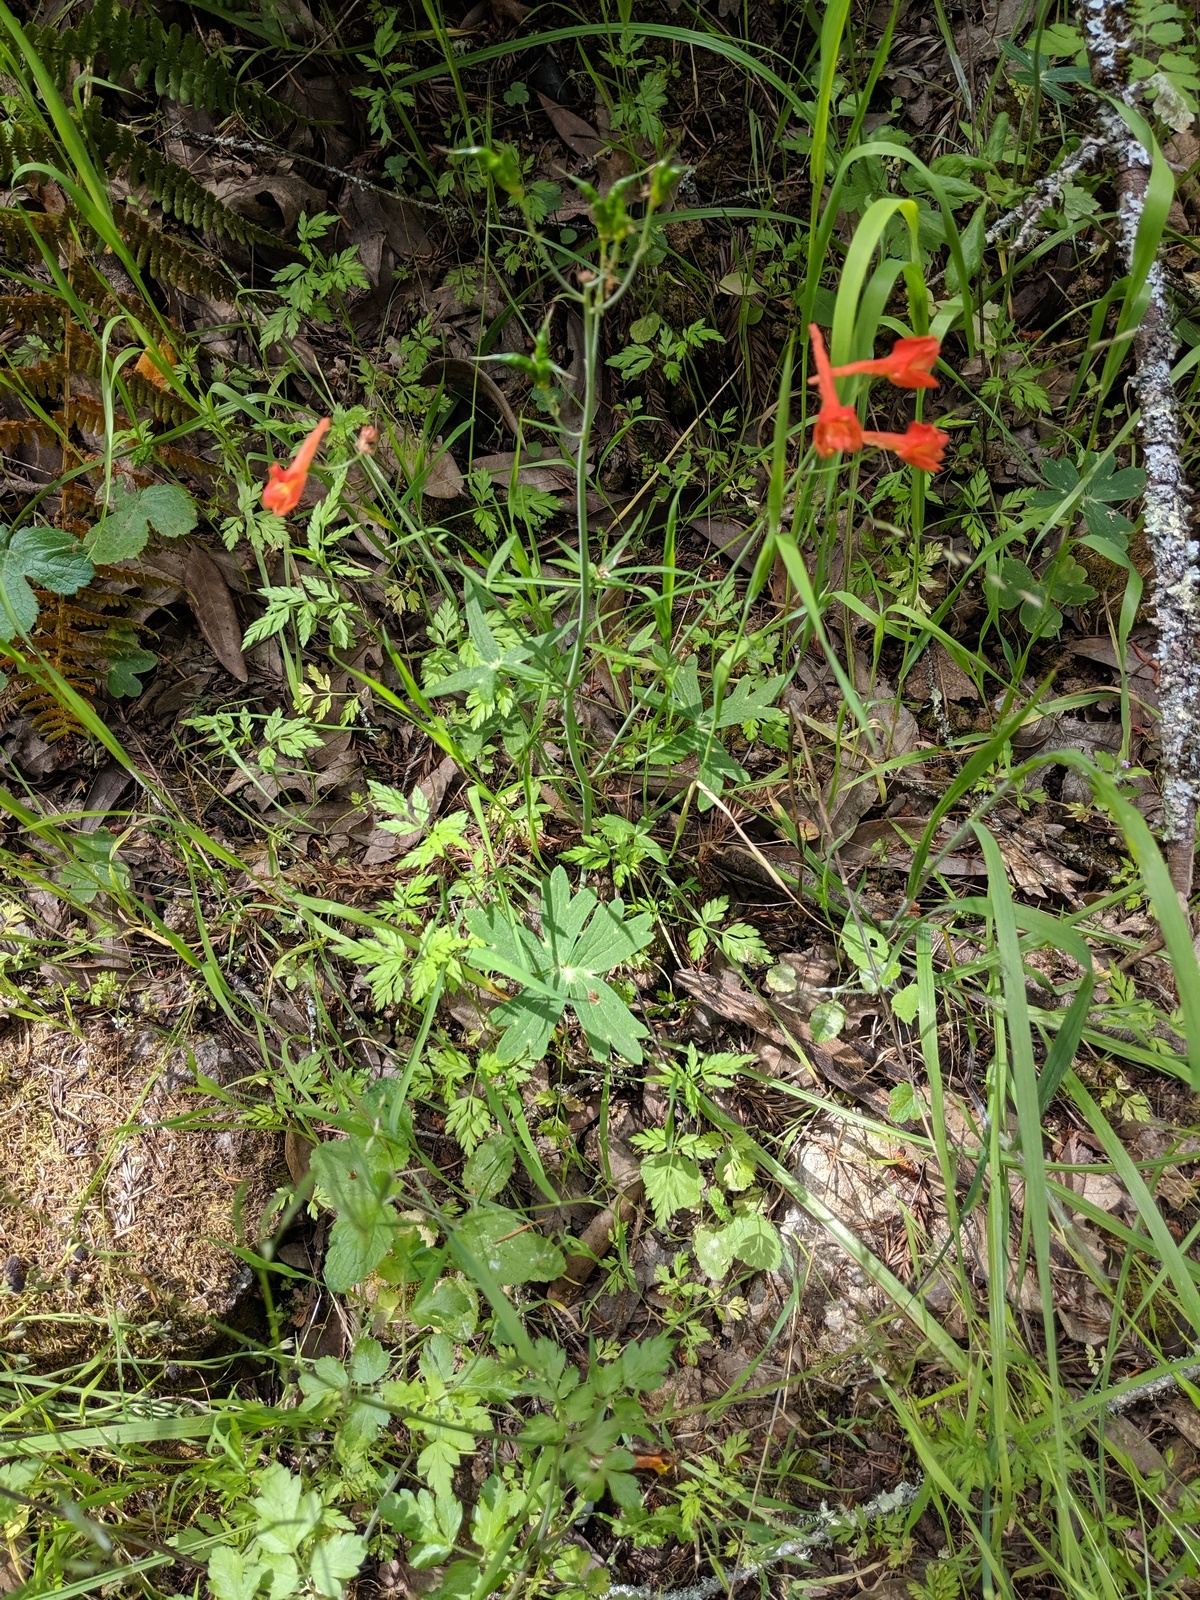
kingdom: Plantae
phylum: Tracheophyta
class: Magnoliopsida
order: Ranunculales
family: Ranunculaceae
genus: Delphinium
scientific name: Delphinium nudicaule
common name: Red larkspur
